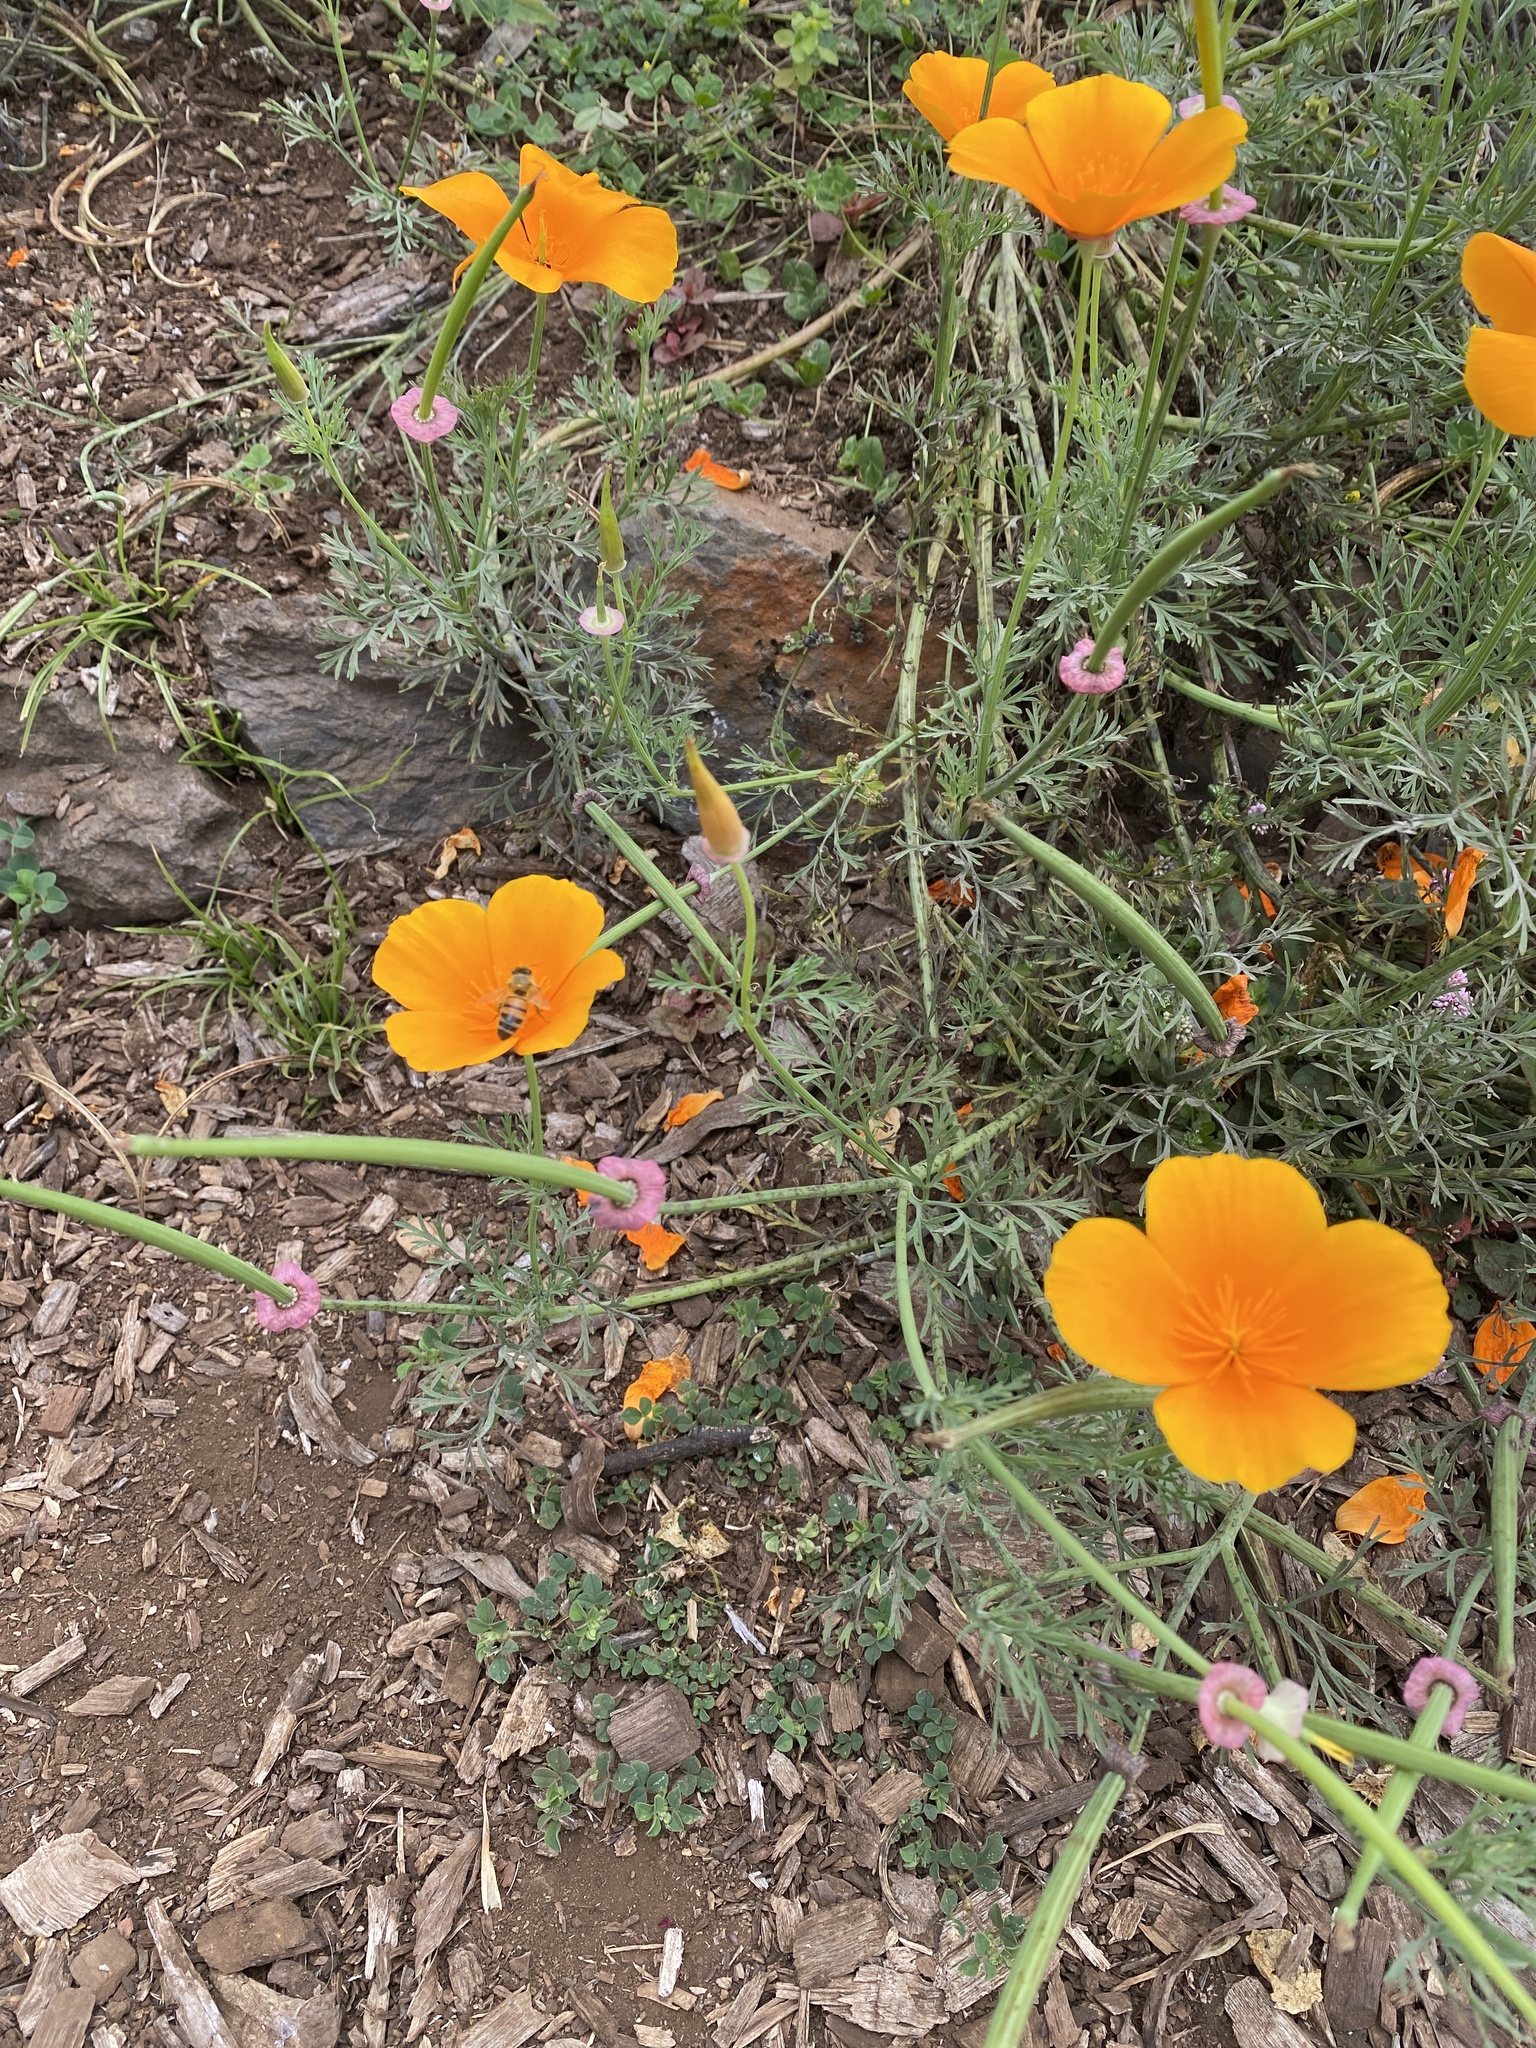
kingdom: Plantae
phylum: Tracheophyta
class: Magnoliopsida
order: Ranunculales
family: Papaveraceae
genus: Eschscholzia
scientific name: Eschscholzia californica
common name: California poppy
